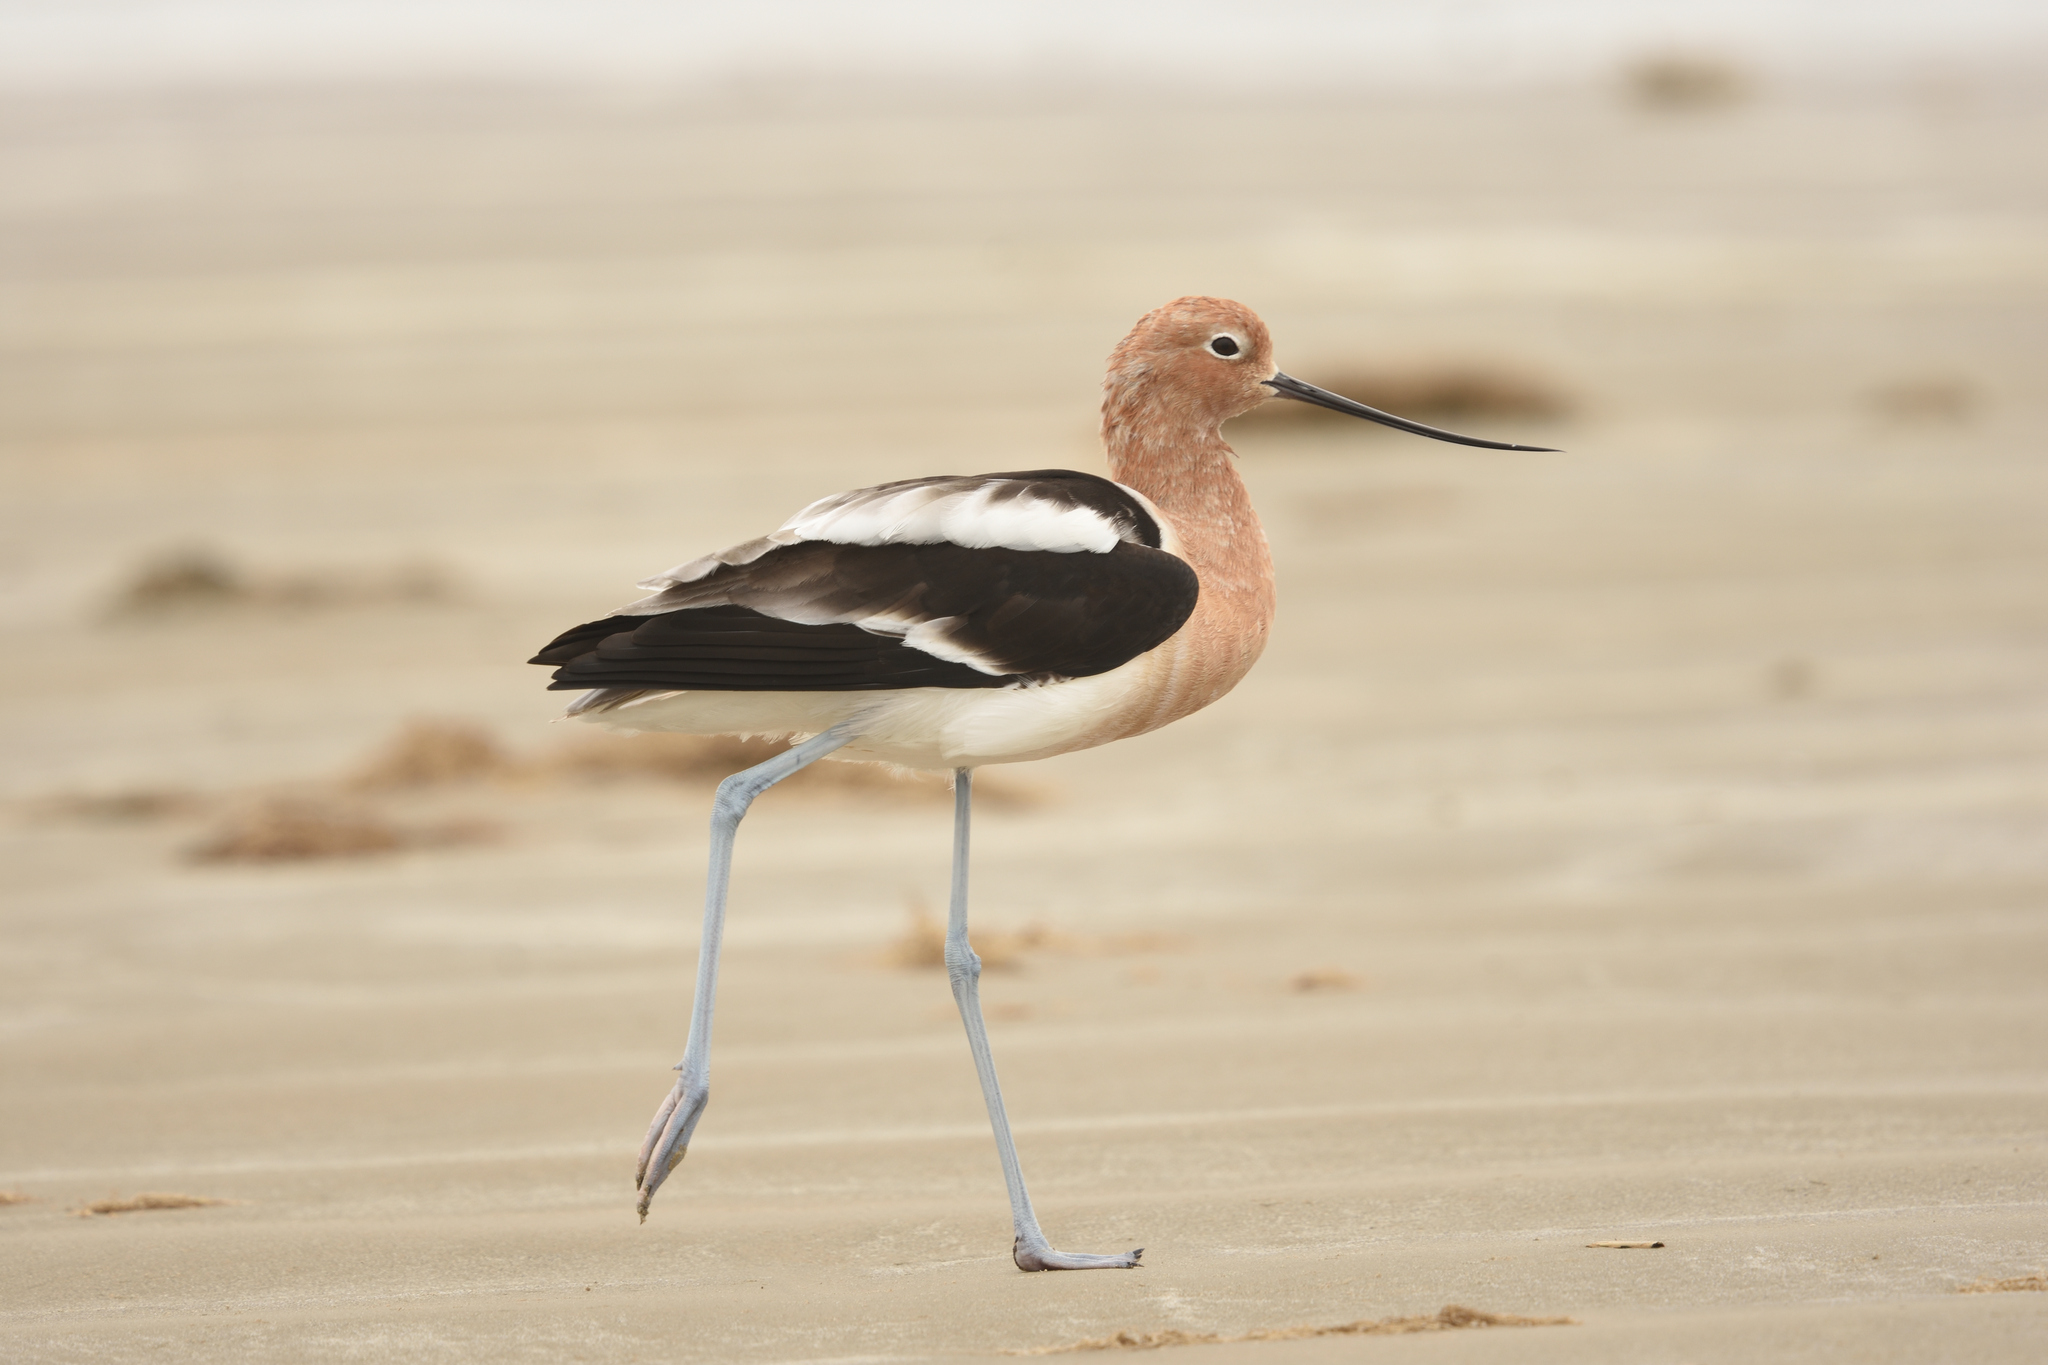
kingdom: Animalia
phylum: Chordata
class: Aves
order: Charadriiformes
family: Recurvirostridae
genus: Recurvirostra
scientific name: Recurvirostra americana
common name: American avocet
